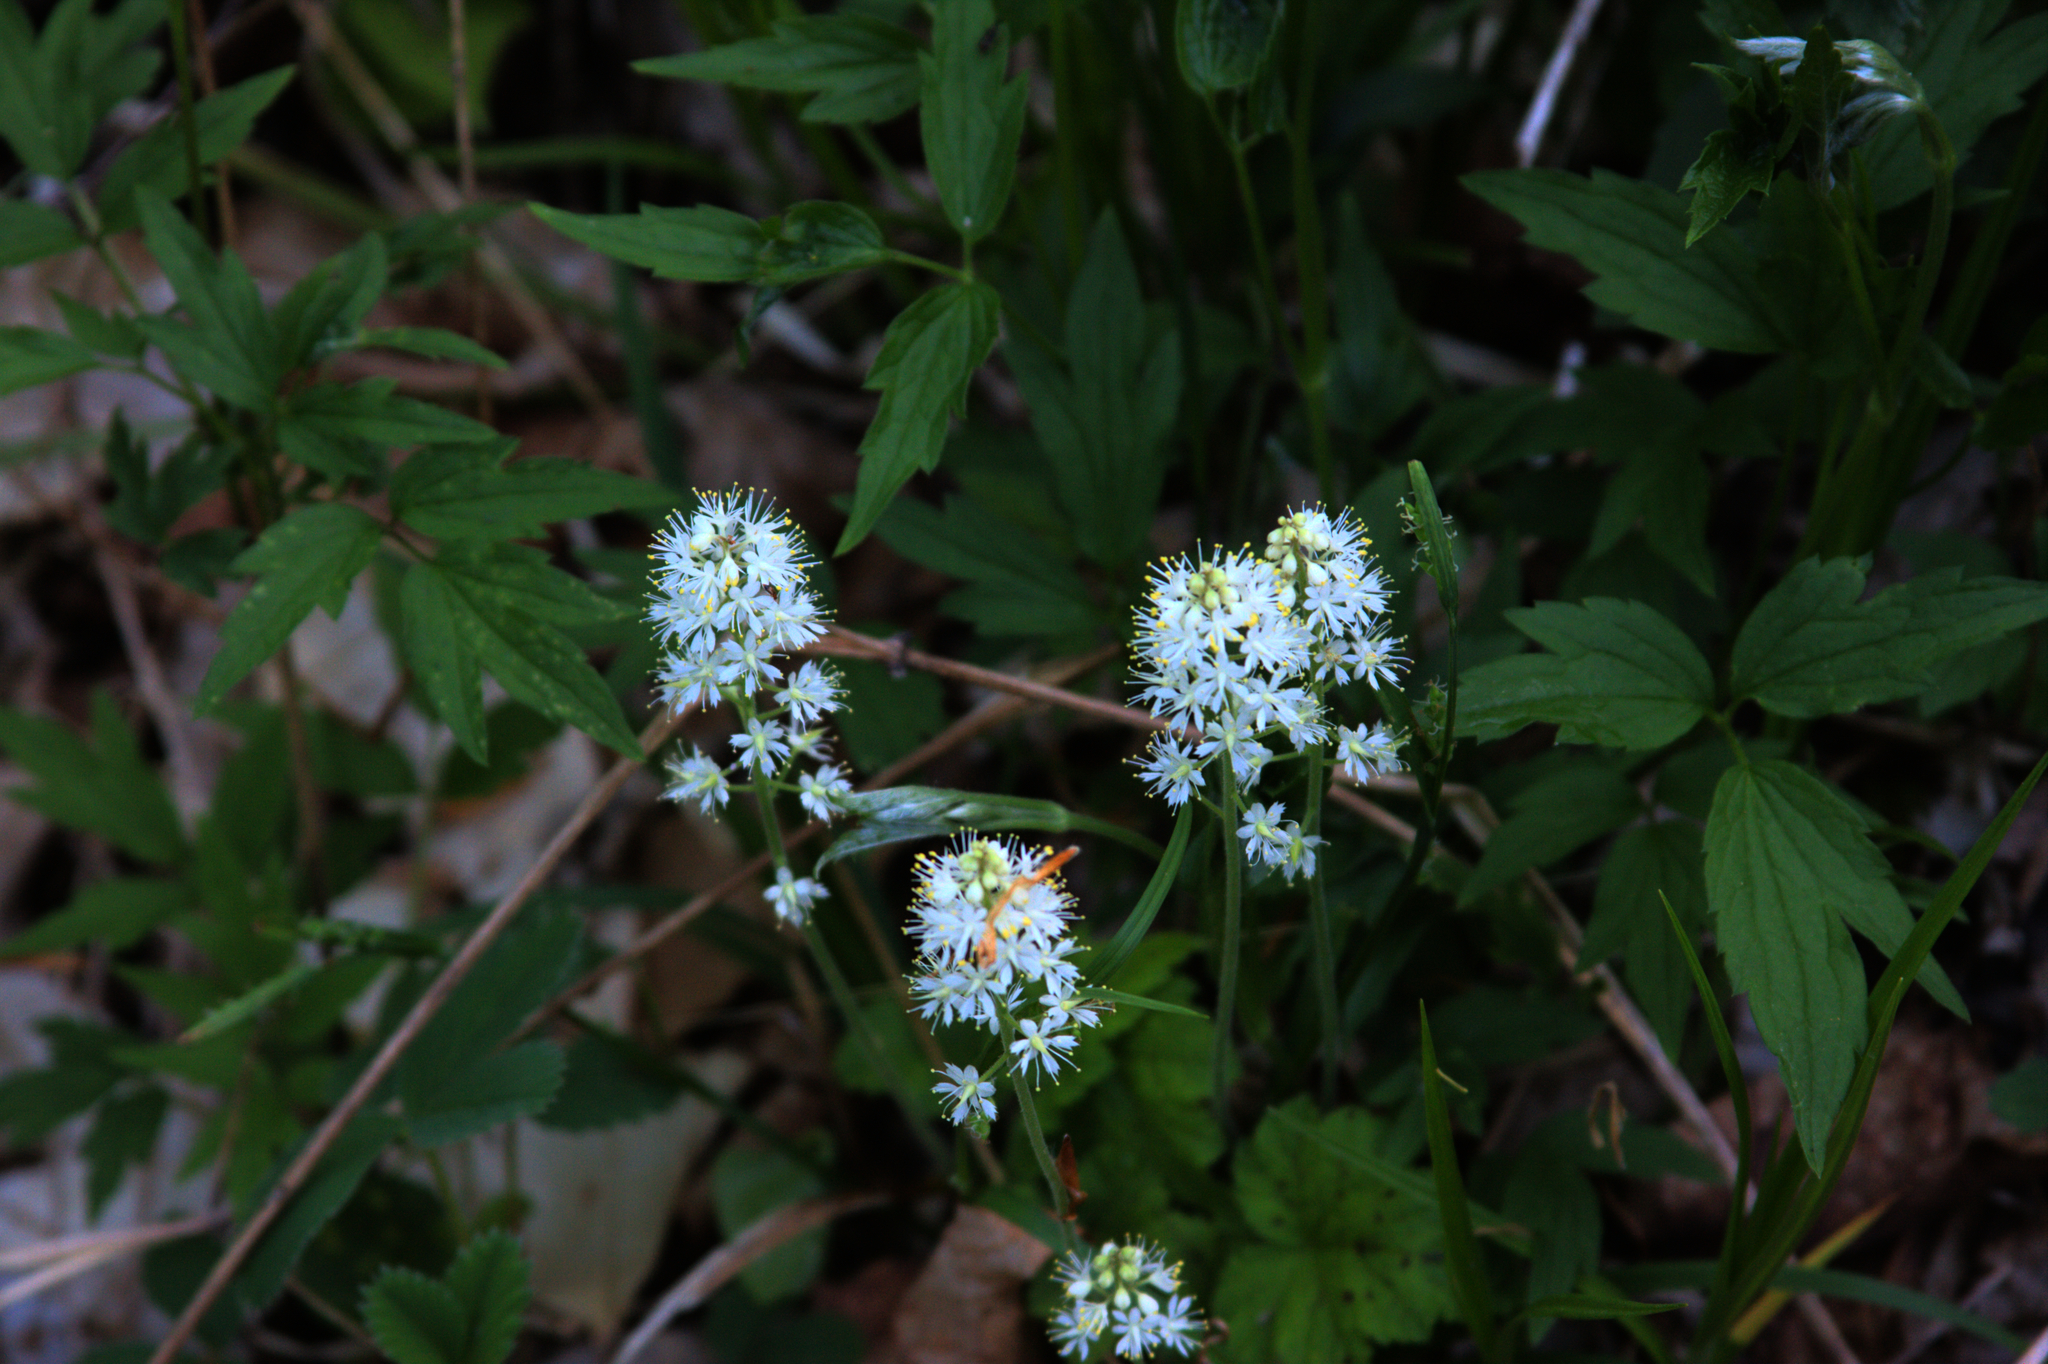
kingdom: Plantae
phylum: Tracheophyta
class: Magnoliopsida
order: Saxifragales
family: Saxifragaceae
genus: Tiarella
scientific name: Tiarella stolonifera
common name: Stoloniferous foamflower
